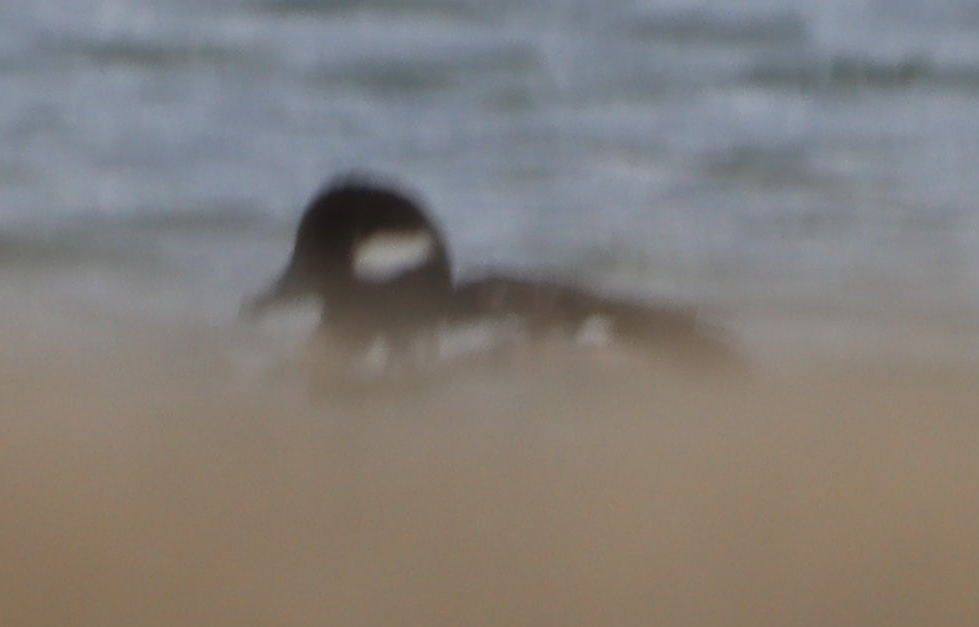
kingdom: Animalia
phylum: Chordata
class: Aves
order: Anseriformes
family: Anatidae
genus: Bucephala
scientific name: Bucephala albeola
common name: Bufflehead
